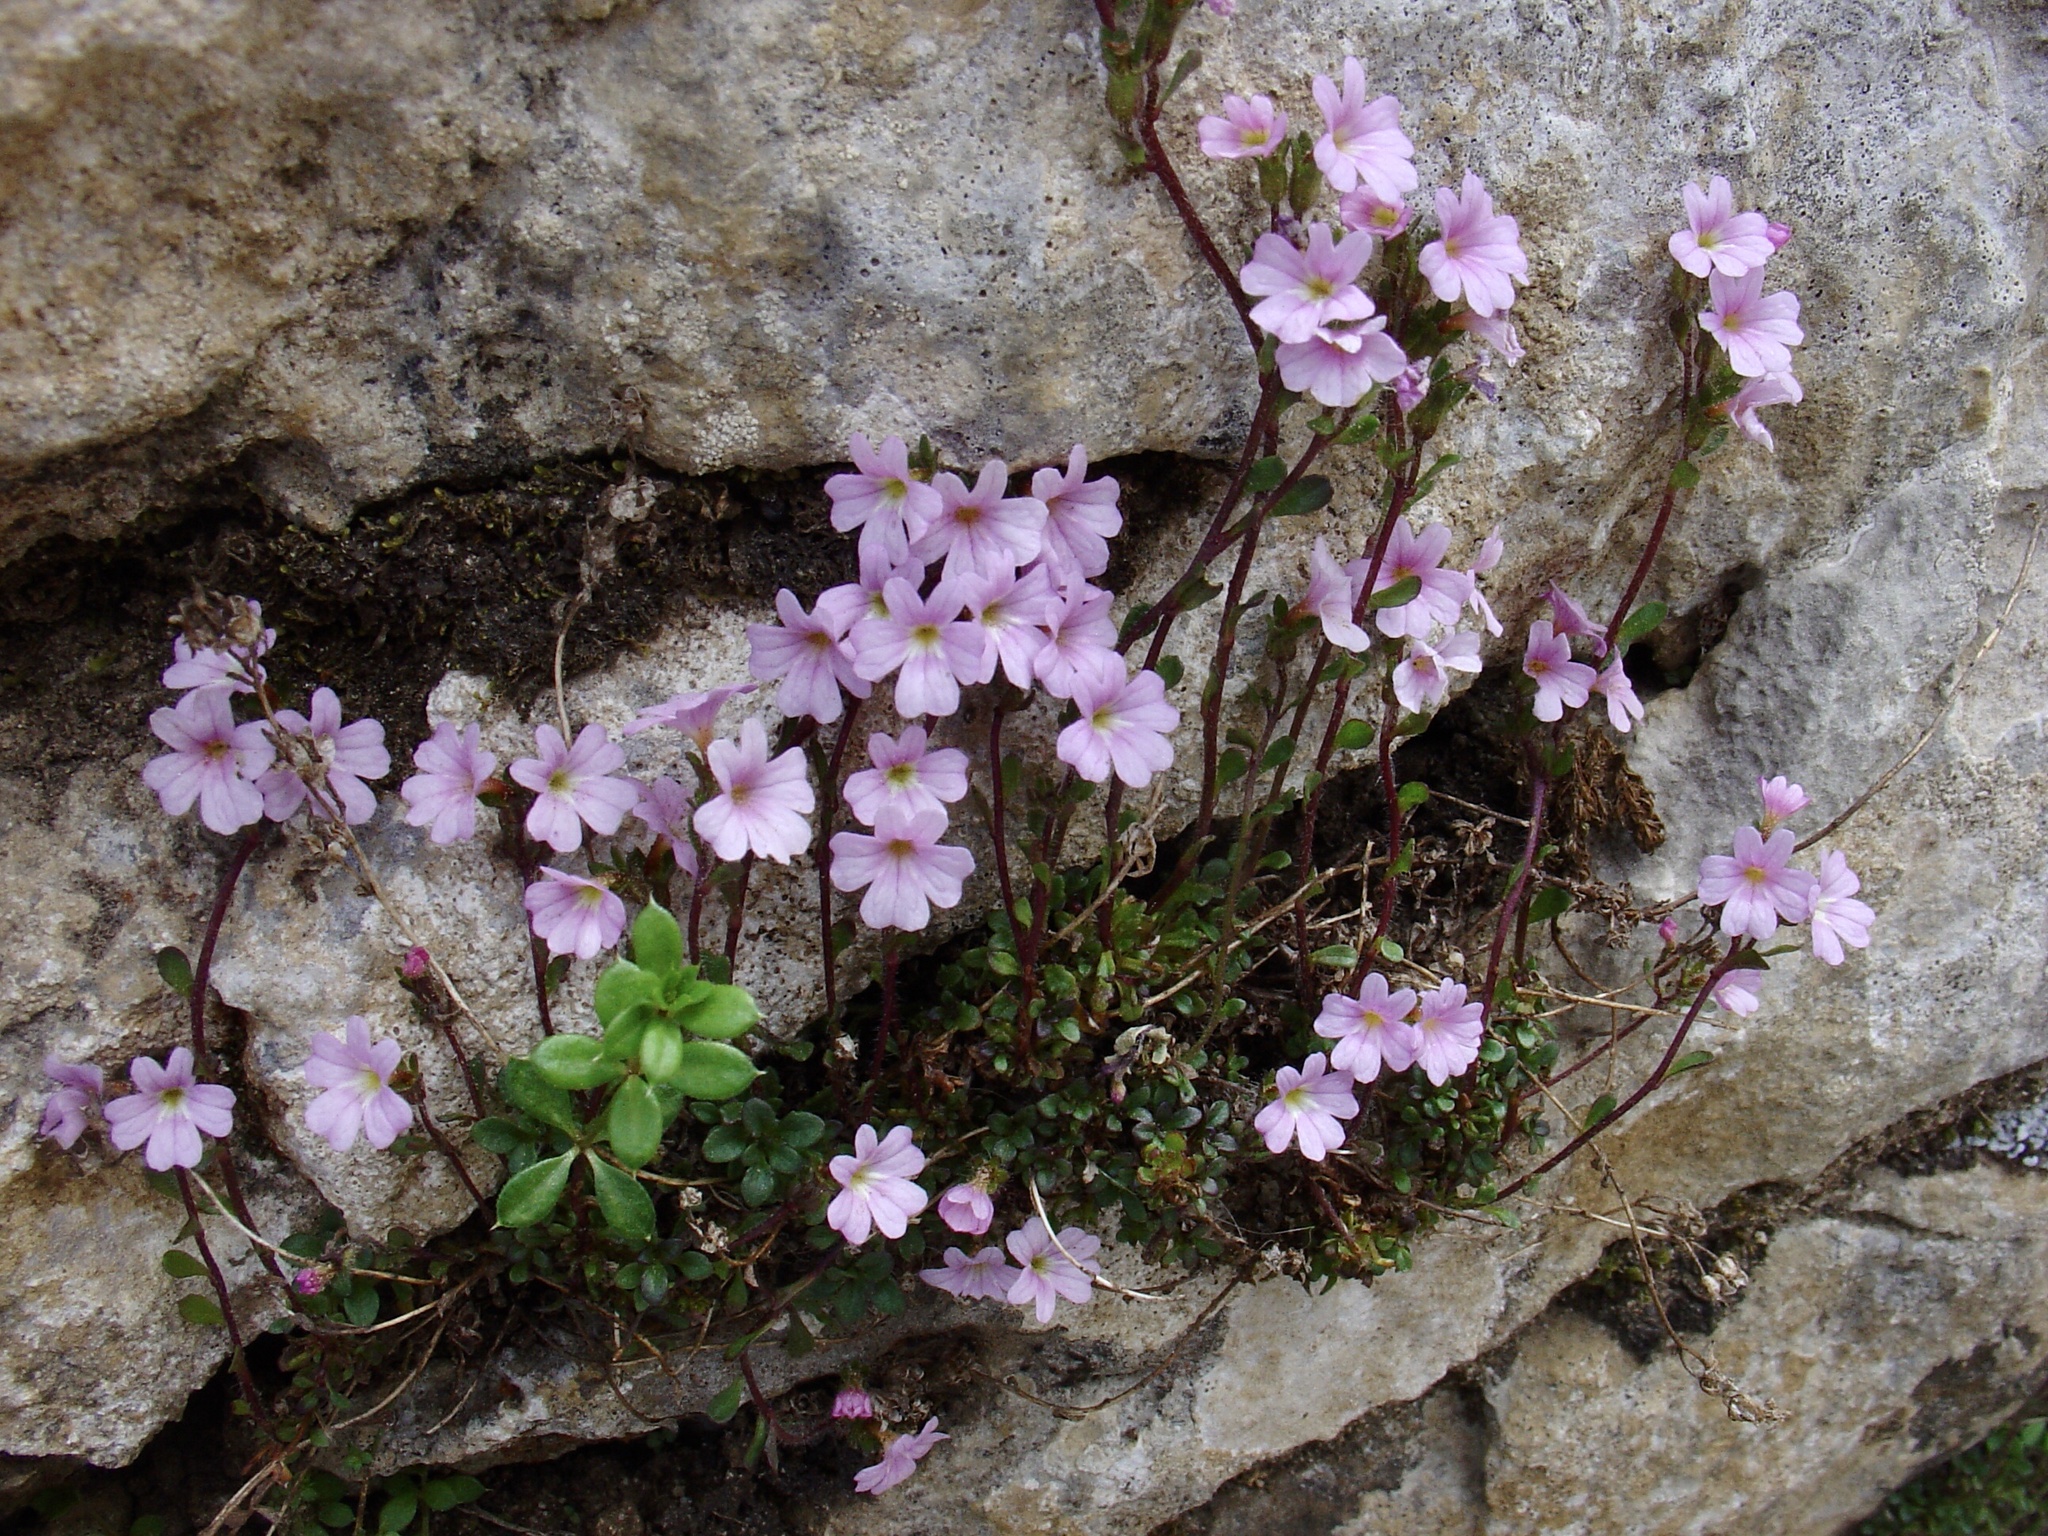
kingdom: Plantae
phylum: Tracheophyta
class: Magnoliopsida
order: Lamiales
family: Plantaginaceae
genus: Erinus
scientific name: Erinus alpinus
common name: Fairy foxglove
